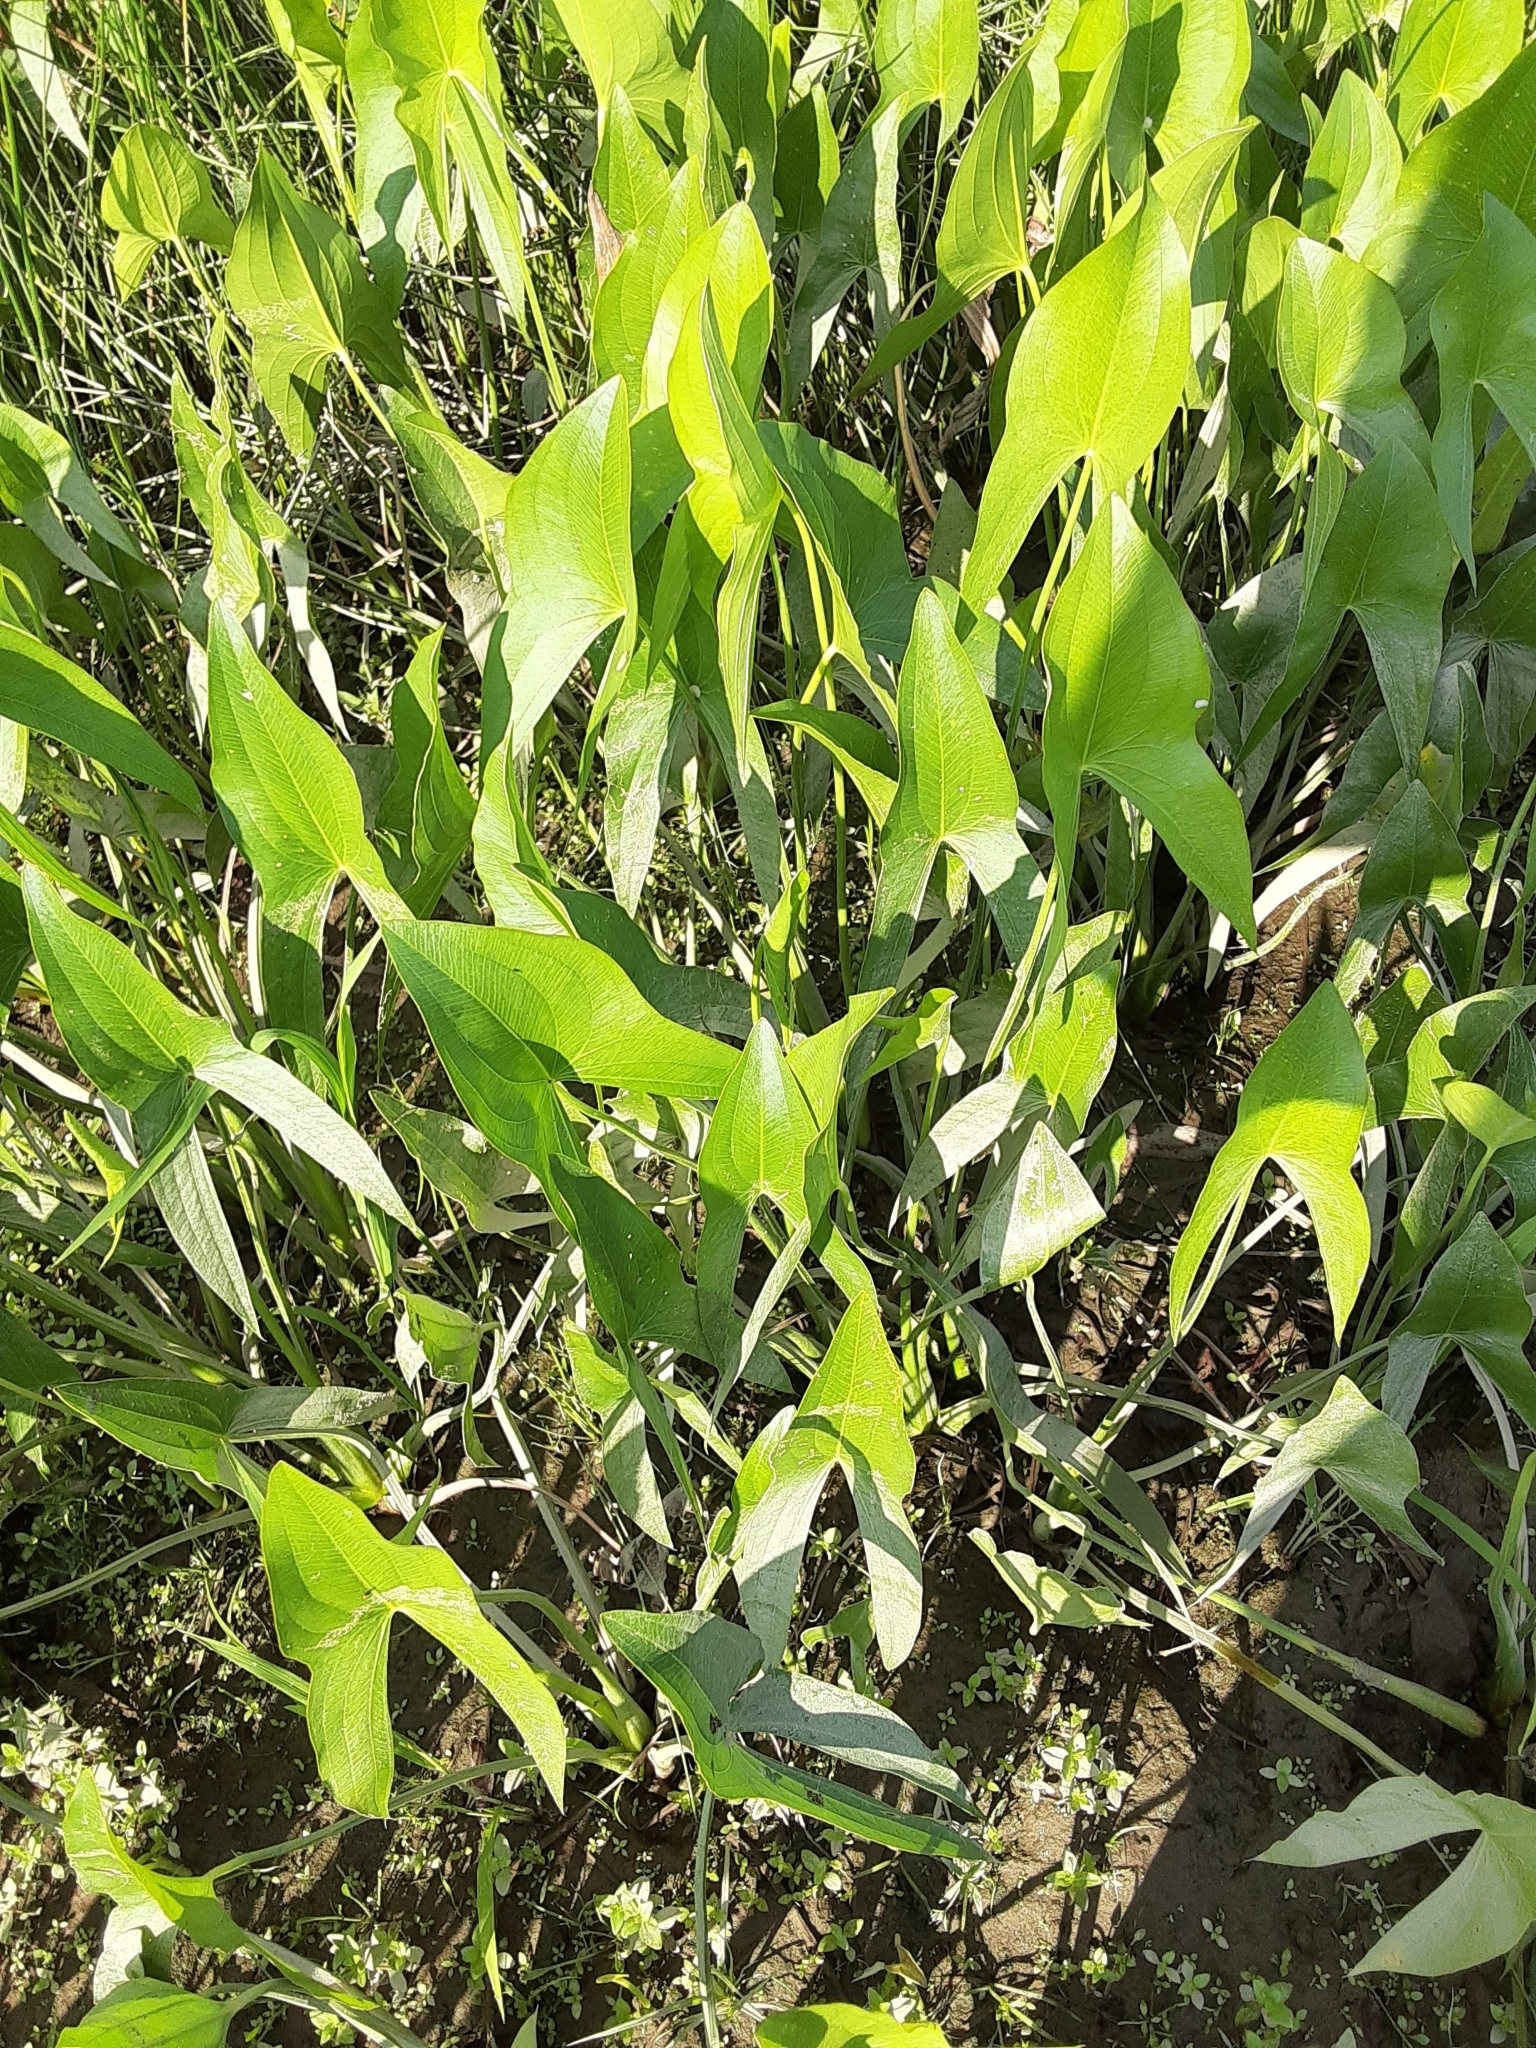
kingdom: Plantae
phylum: Tracheophyta
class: Liliopsida
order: Alismatales
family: Alismataceae
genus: Sagittaria
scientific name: Sagittaria latifolia
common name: Duck-potato
